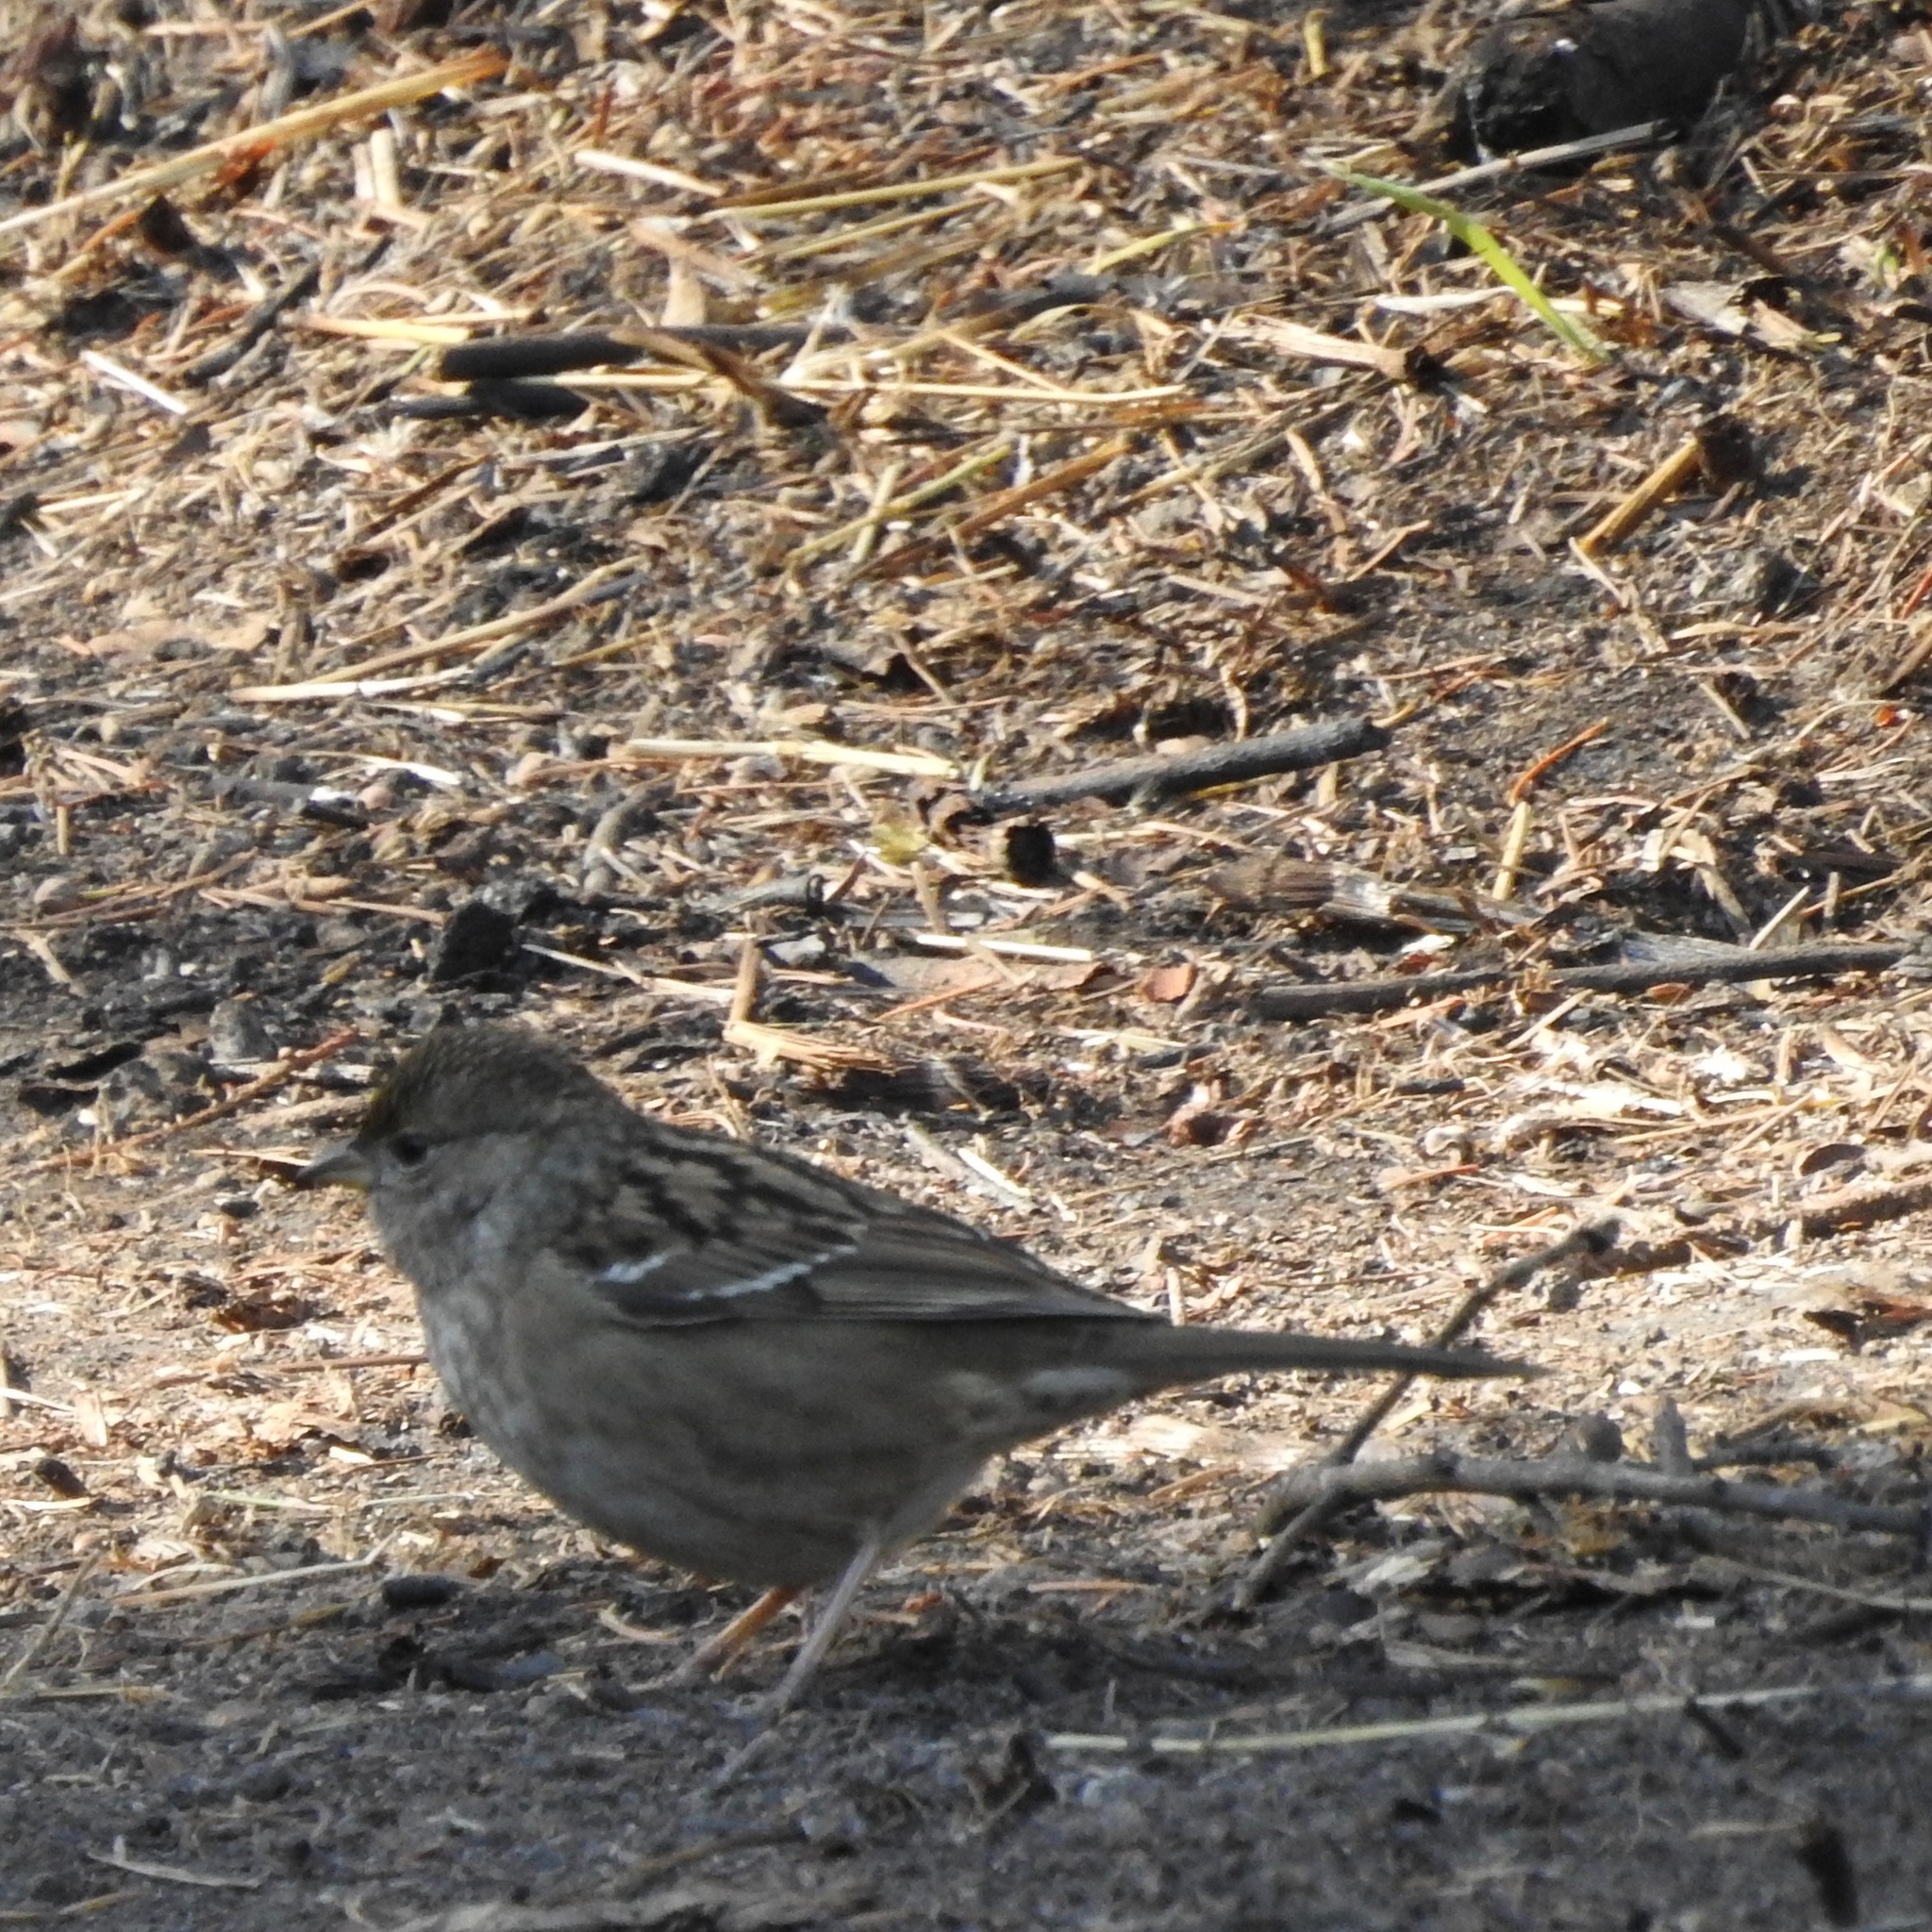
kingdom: Animalia
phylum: Chordata
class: Aves
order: Passeriformes
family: Passerellidae
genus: Zonotrichia
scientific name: Zonotrichia atricapilla
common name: Golden-crowned sparrow
